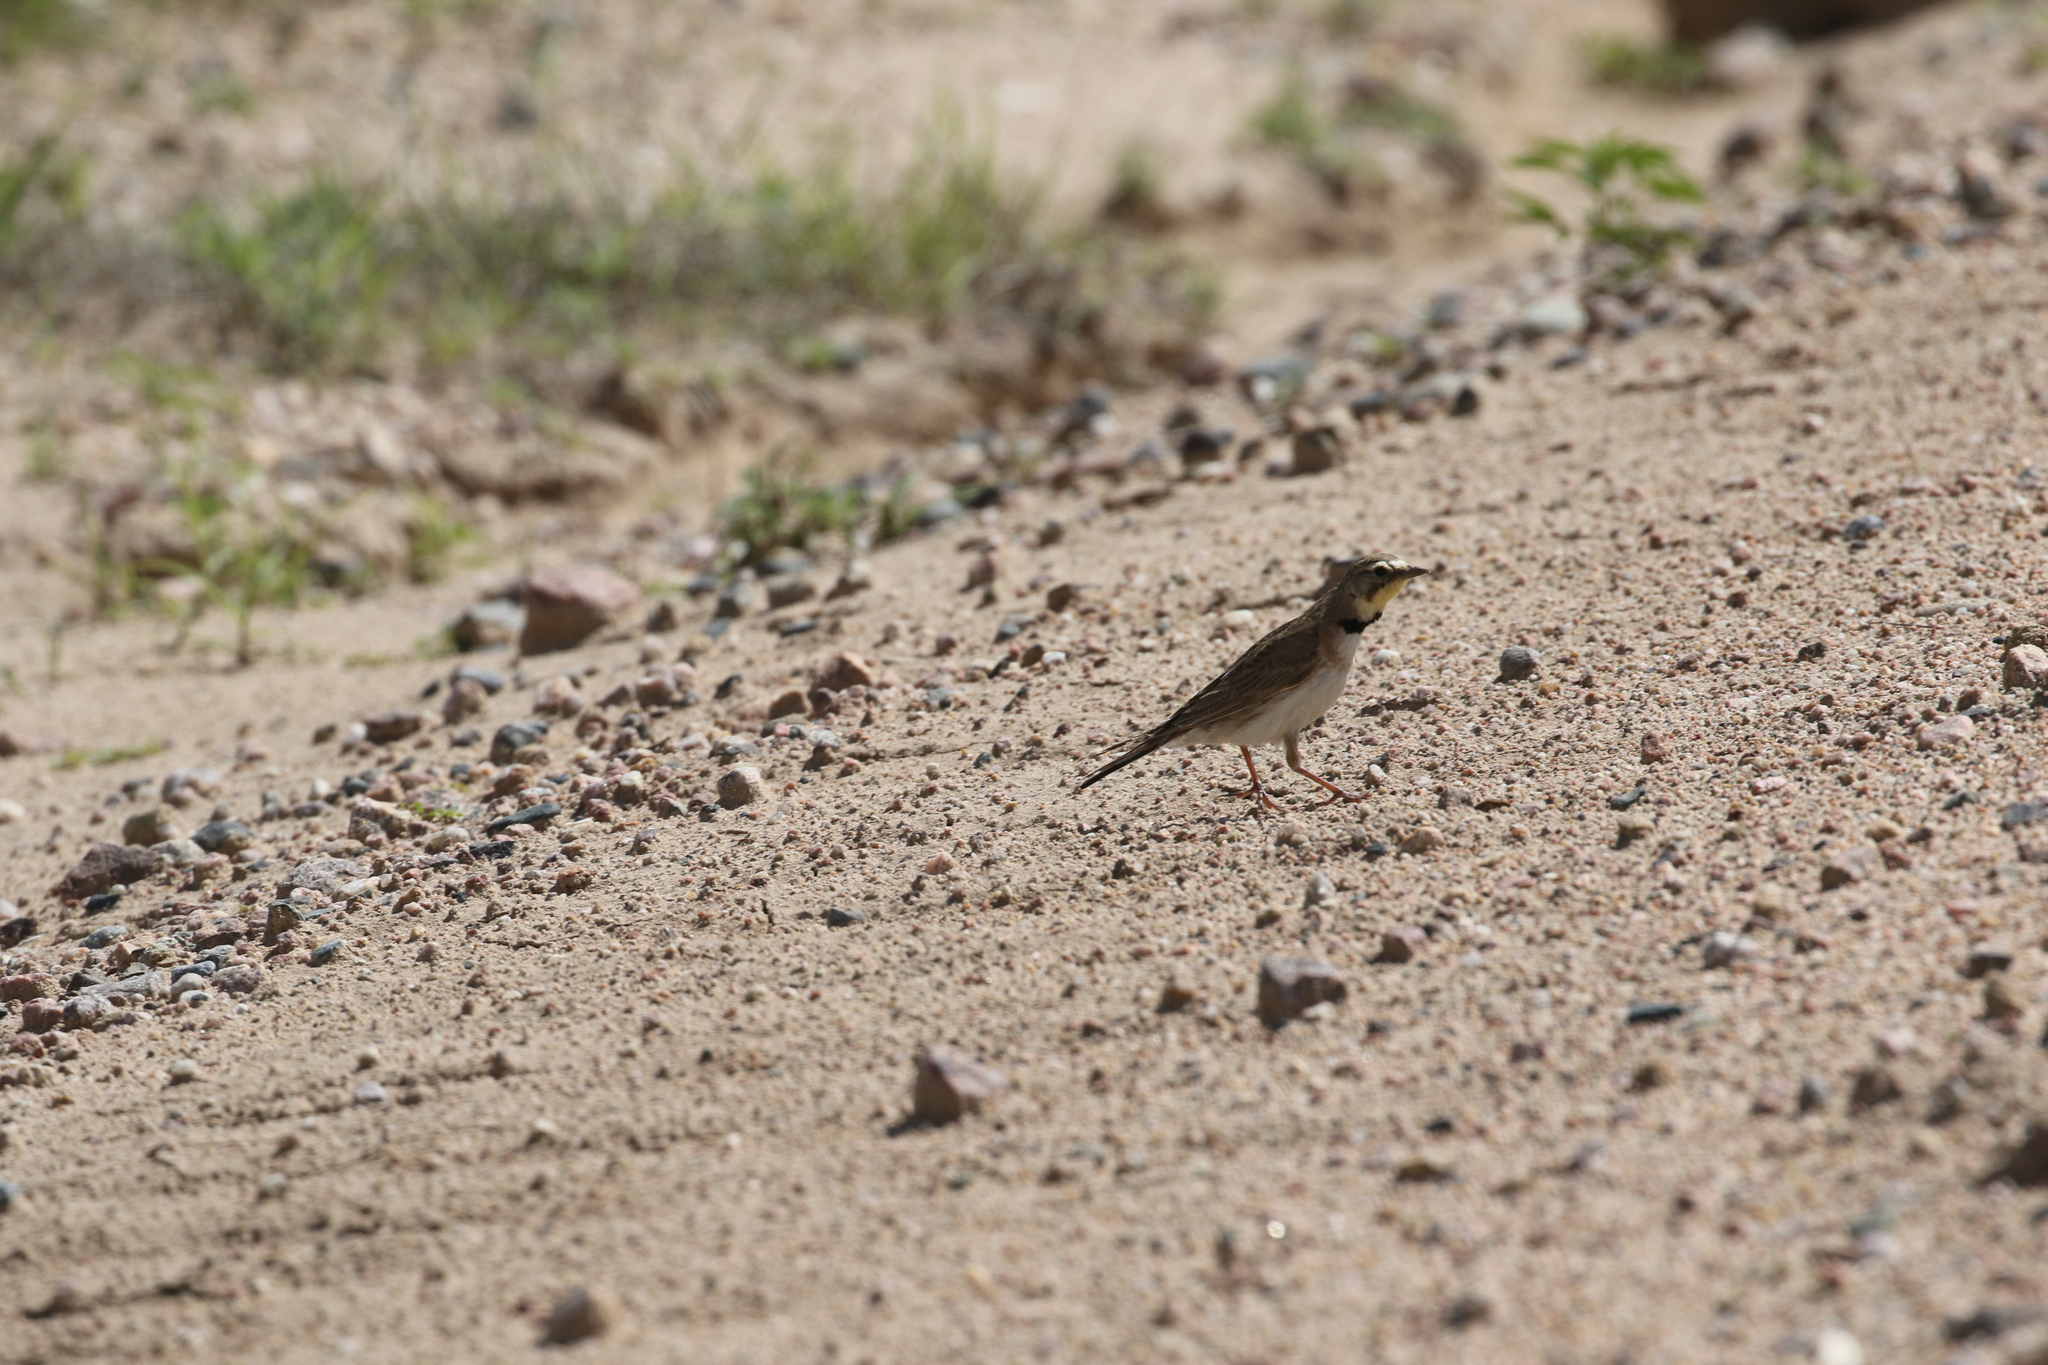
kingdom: Animalia
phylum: Chordata
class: Aves
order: Passeriformes
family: Alaudidae
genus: Eremophila
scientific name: Eremophila alpestris
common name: Horned lark
